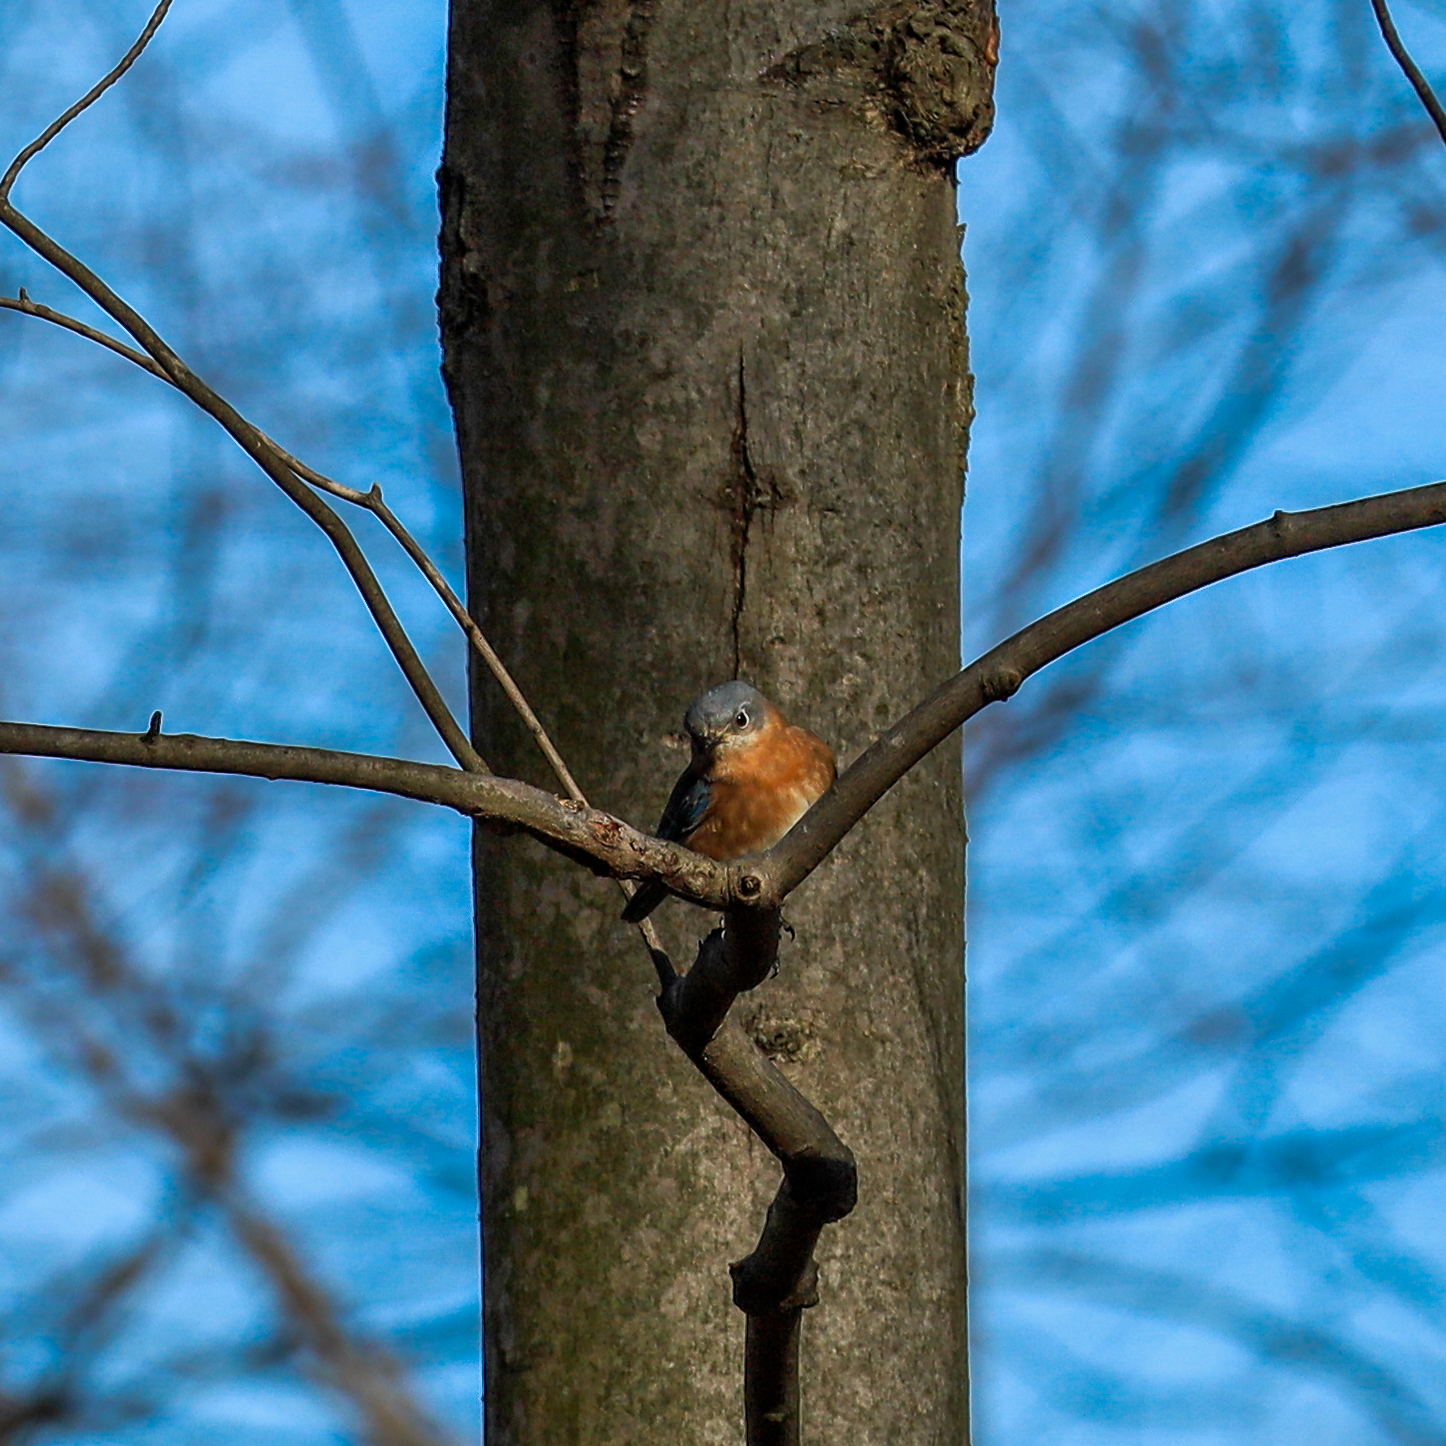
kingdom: Animalia
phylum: Chordata
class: Aves
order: Passeriformes
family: Turdidae
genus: Sialia
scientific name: Sialia sialis
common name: Eastern bluebird
